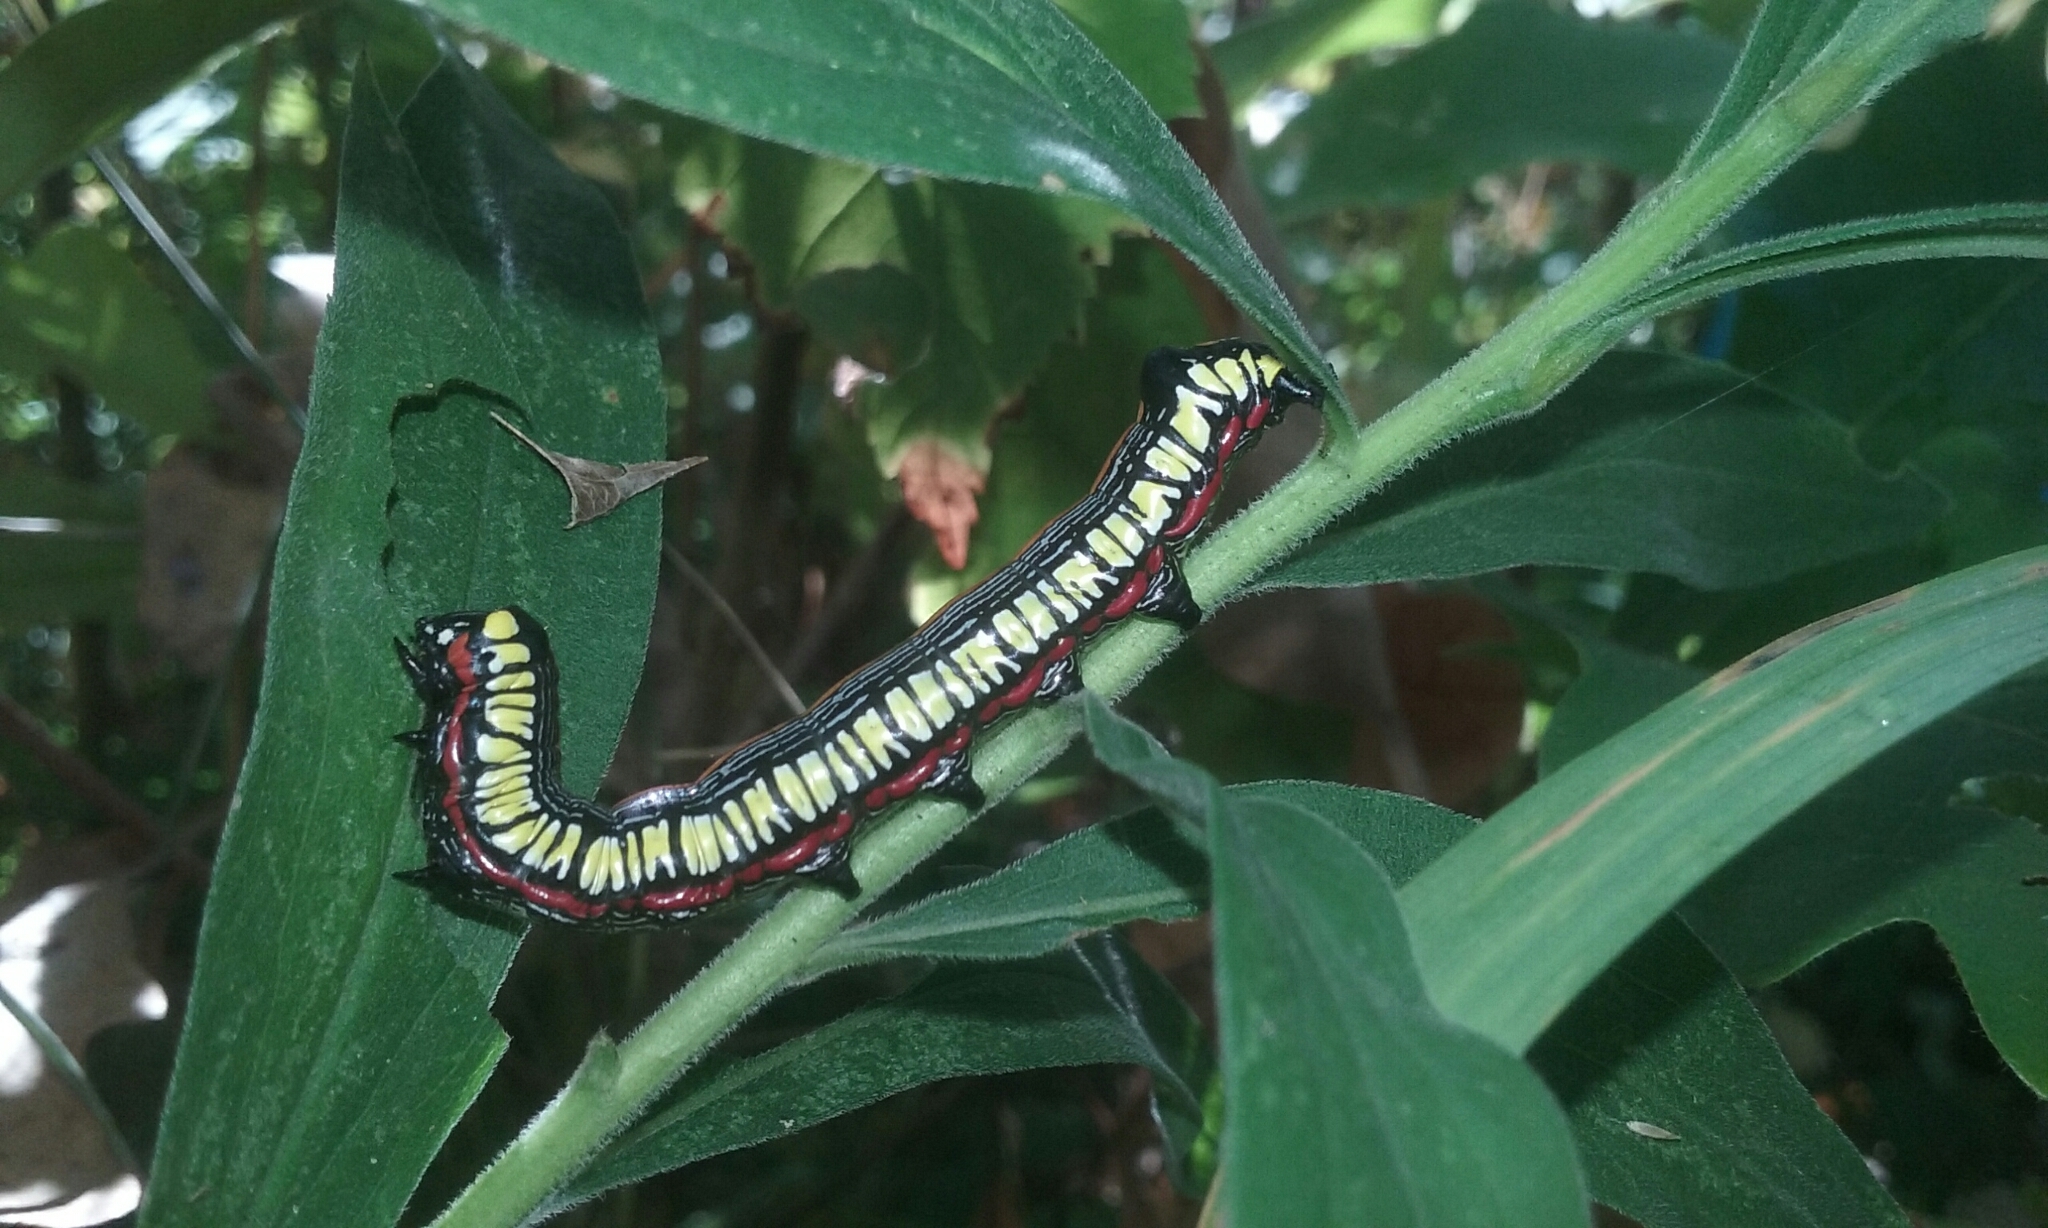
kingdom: Animalia
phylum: Arthropoda
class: Insecta
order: Lepidoptera
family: Noctuidae
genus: Cucullia
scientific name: Cucullia convexipennis
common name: Brown-hooded owlet
